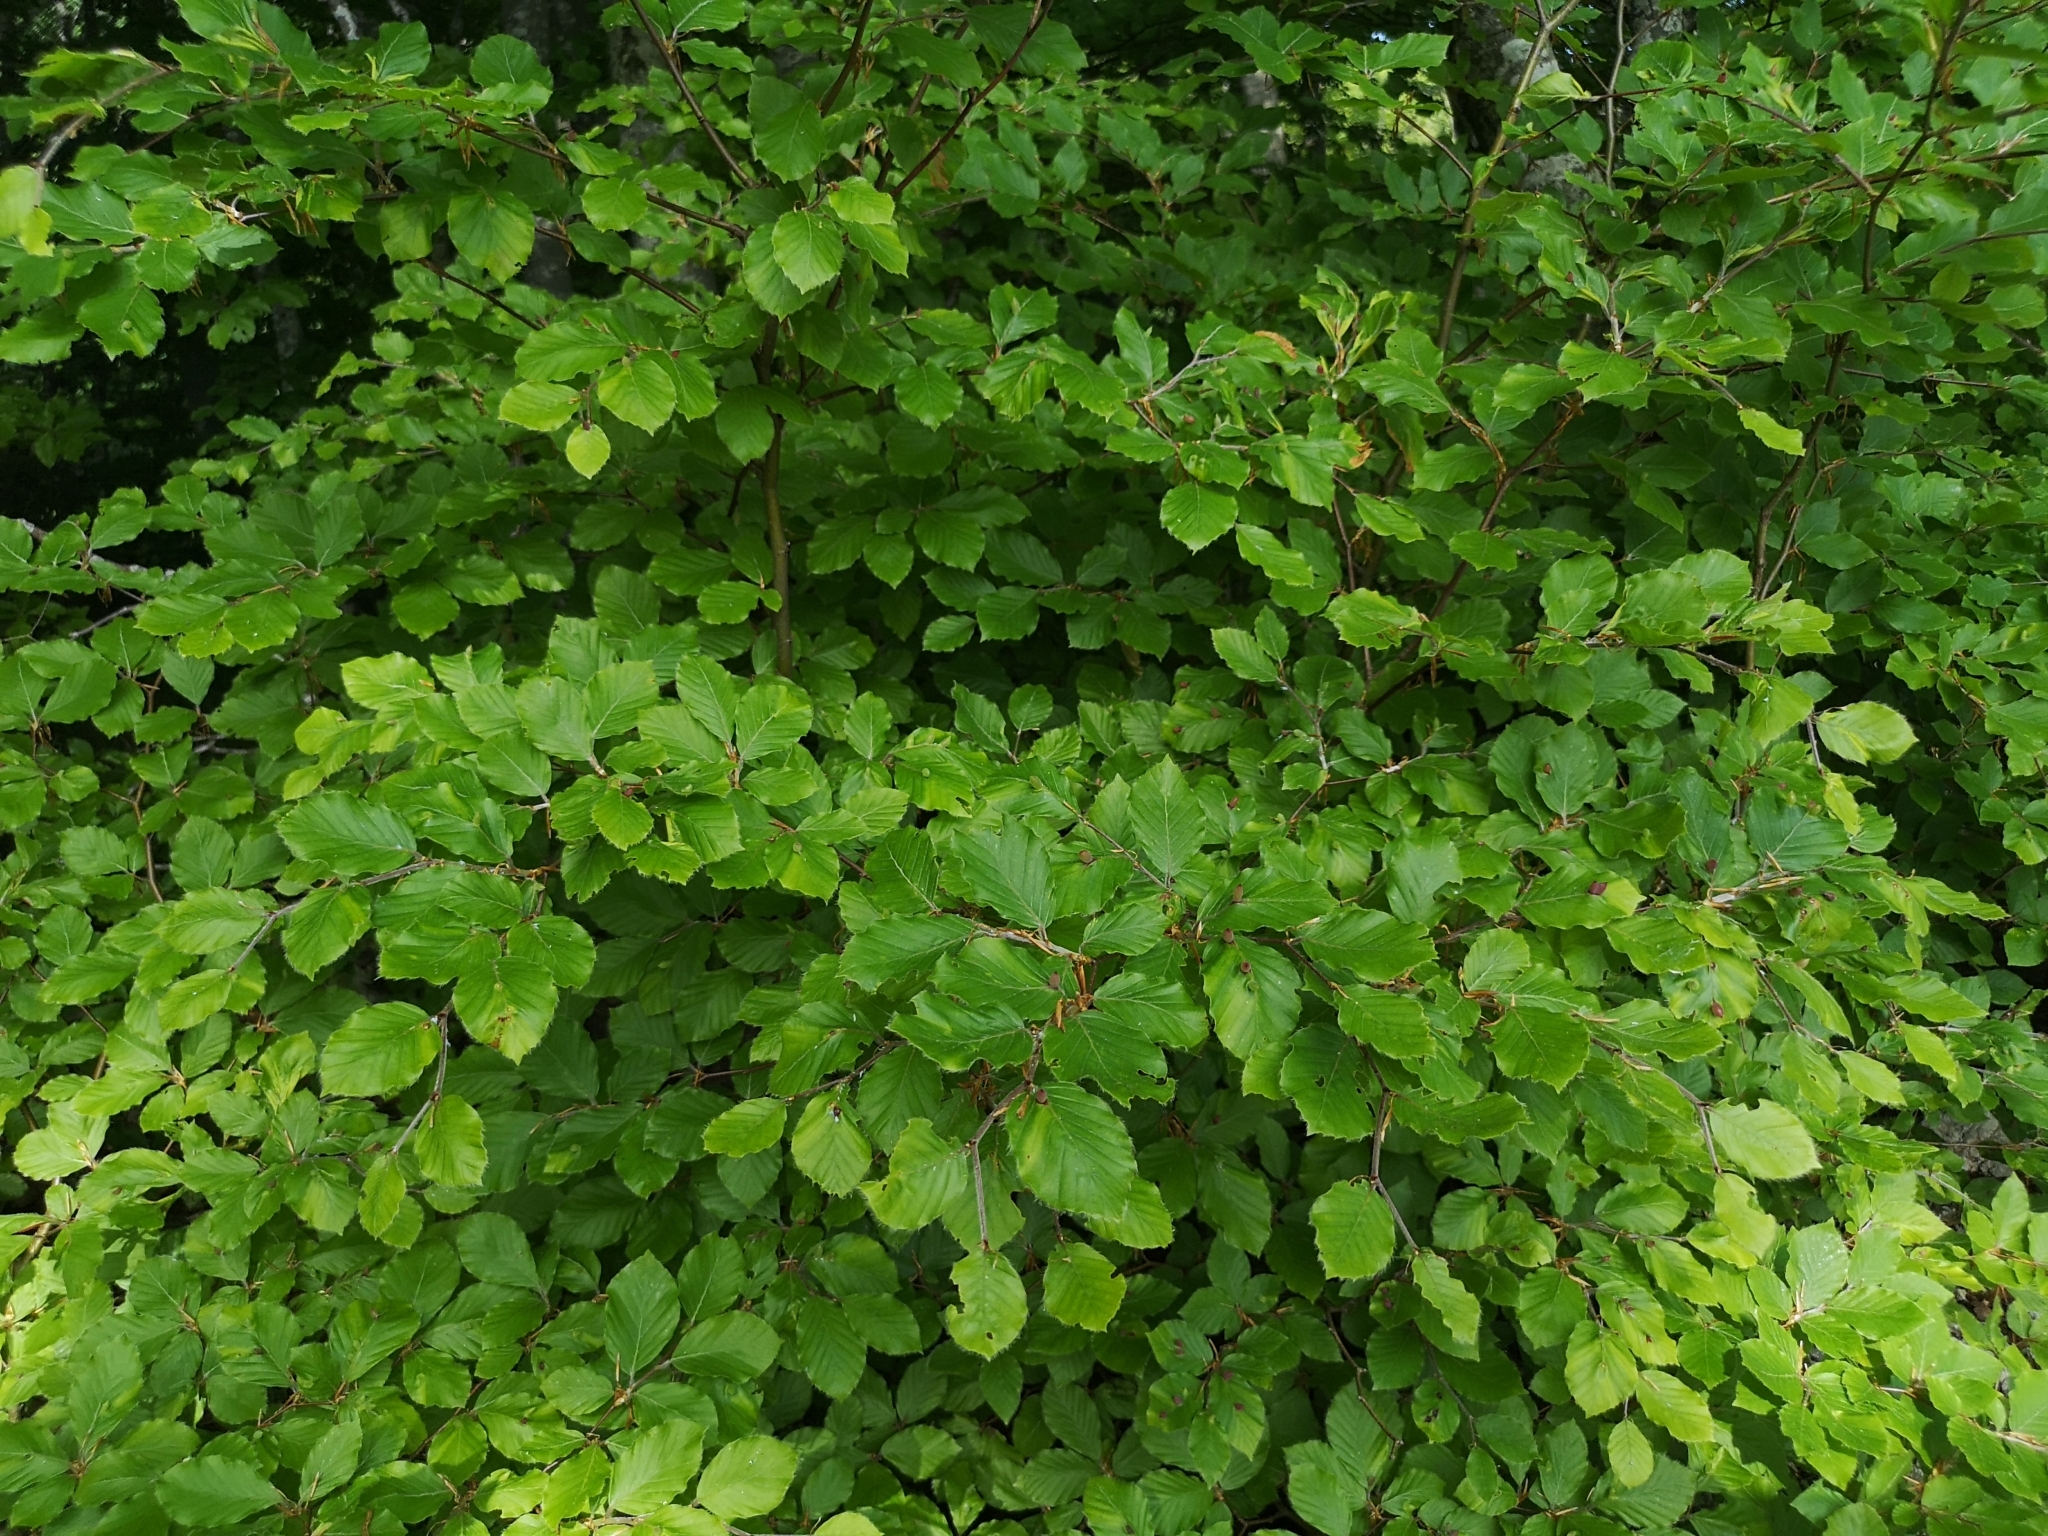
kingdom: Plantae
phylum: Tracheophyta
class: Magnoliopsida
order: Fagales
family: Fagaceae
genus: Fagus
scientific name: Fagus sylvatica
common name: Beech
